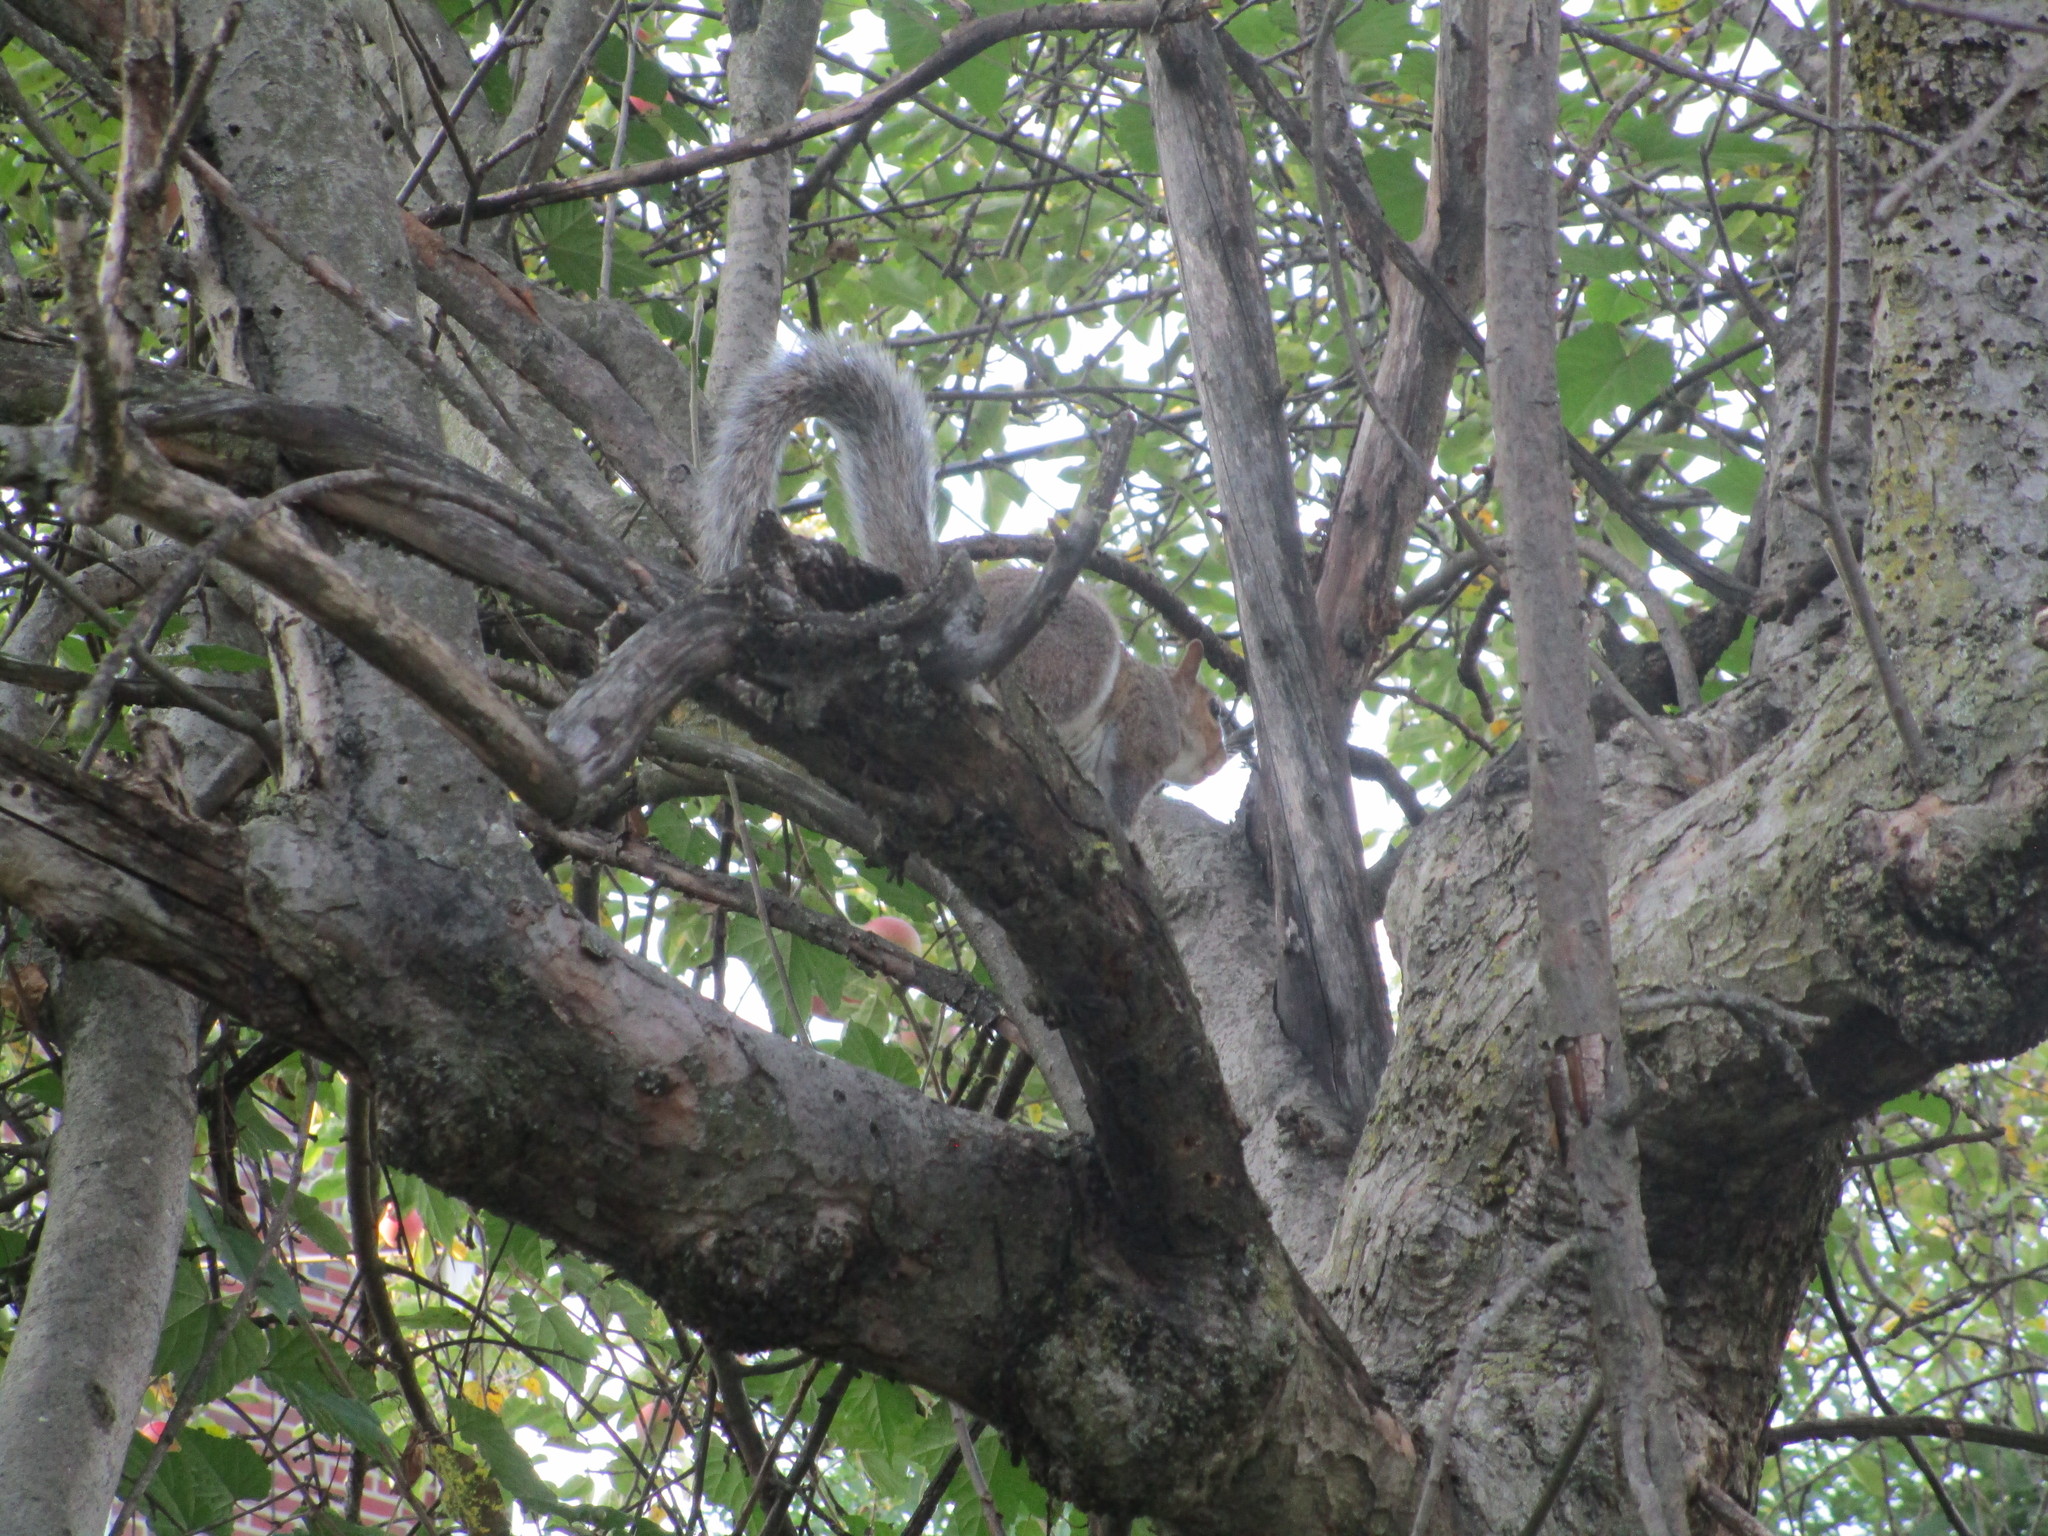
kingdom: Animalia
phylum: Chordata
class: Mammalia
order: Rodentia
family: Sciuridae
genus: Sciurus
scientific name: Sciurus carolinensis
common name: Eastern gray squirrel
